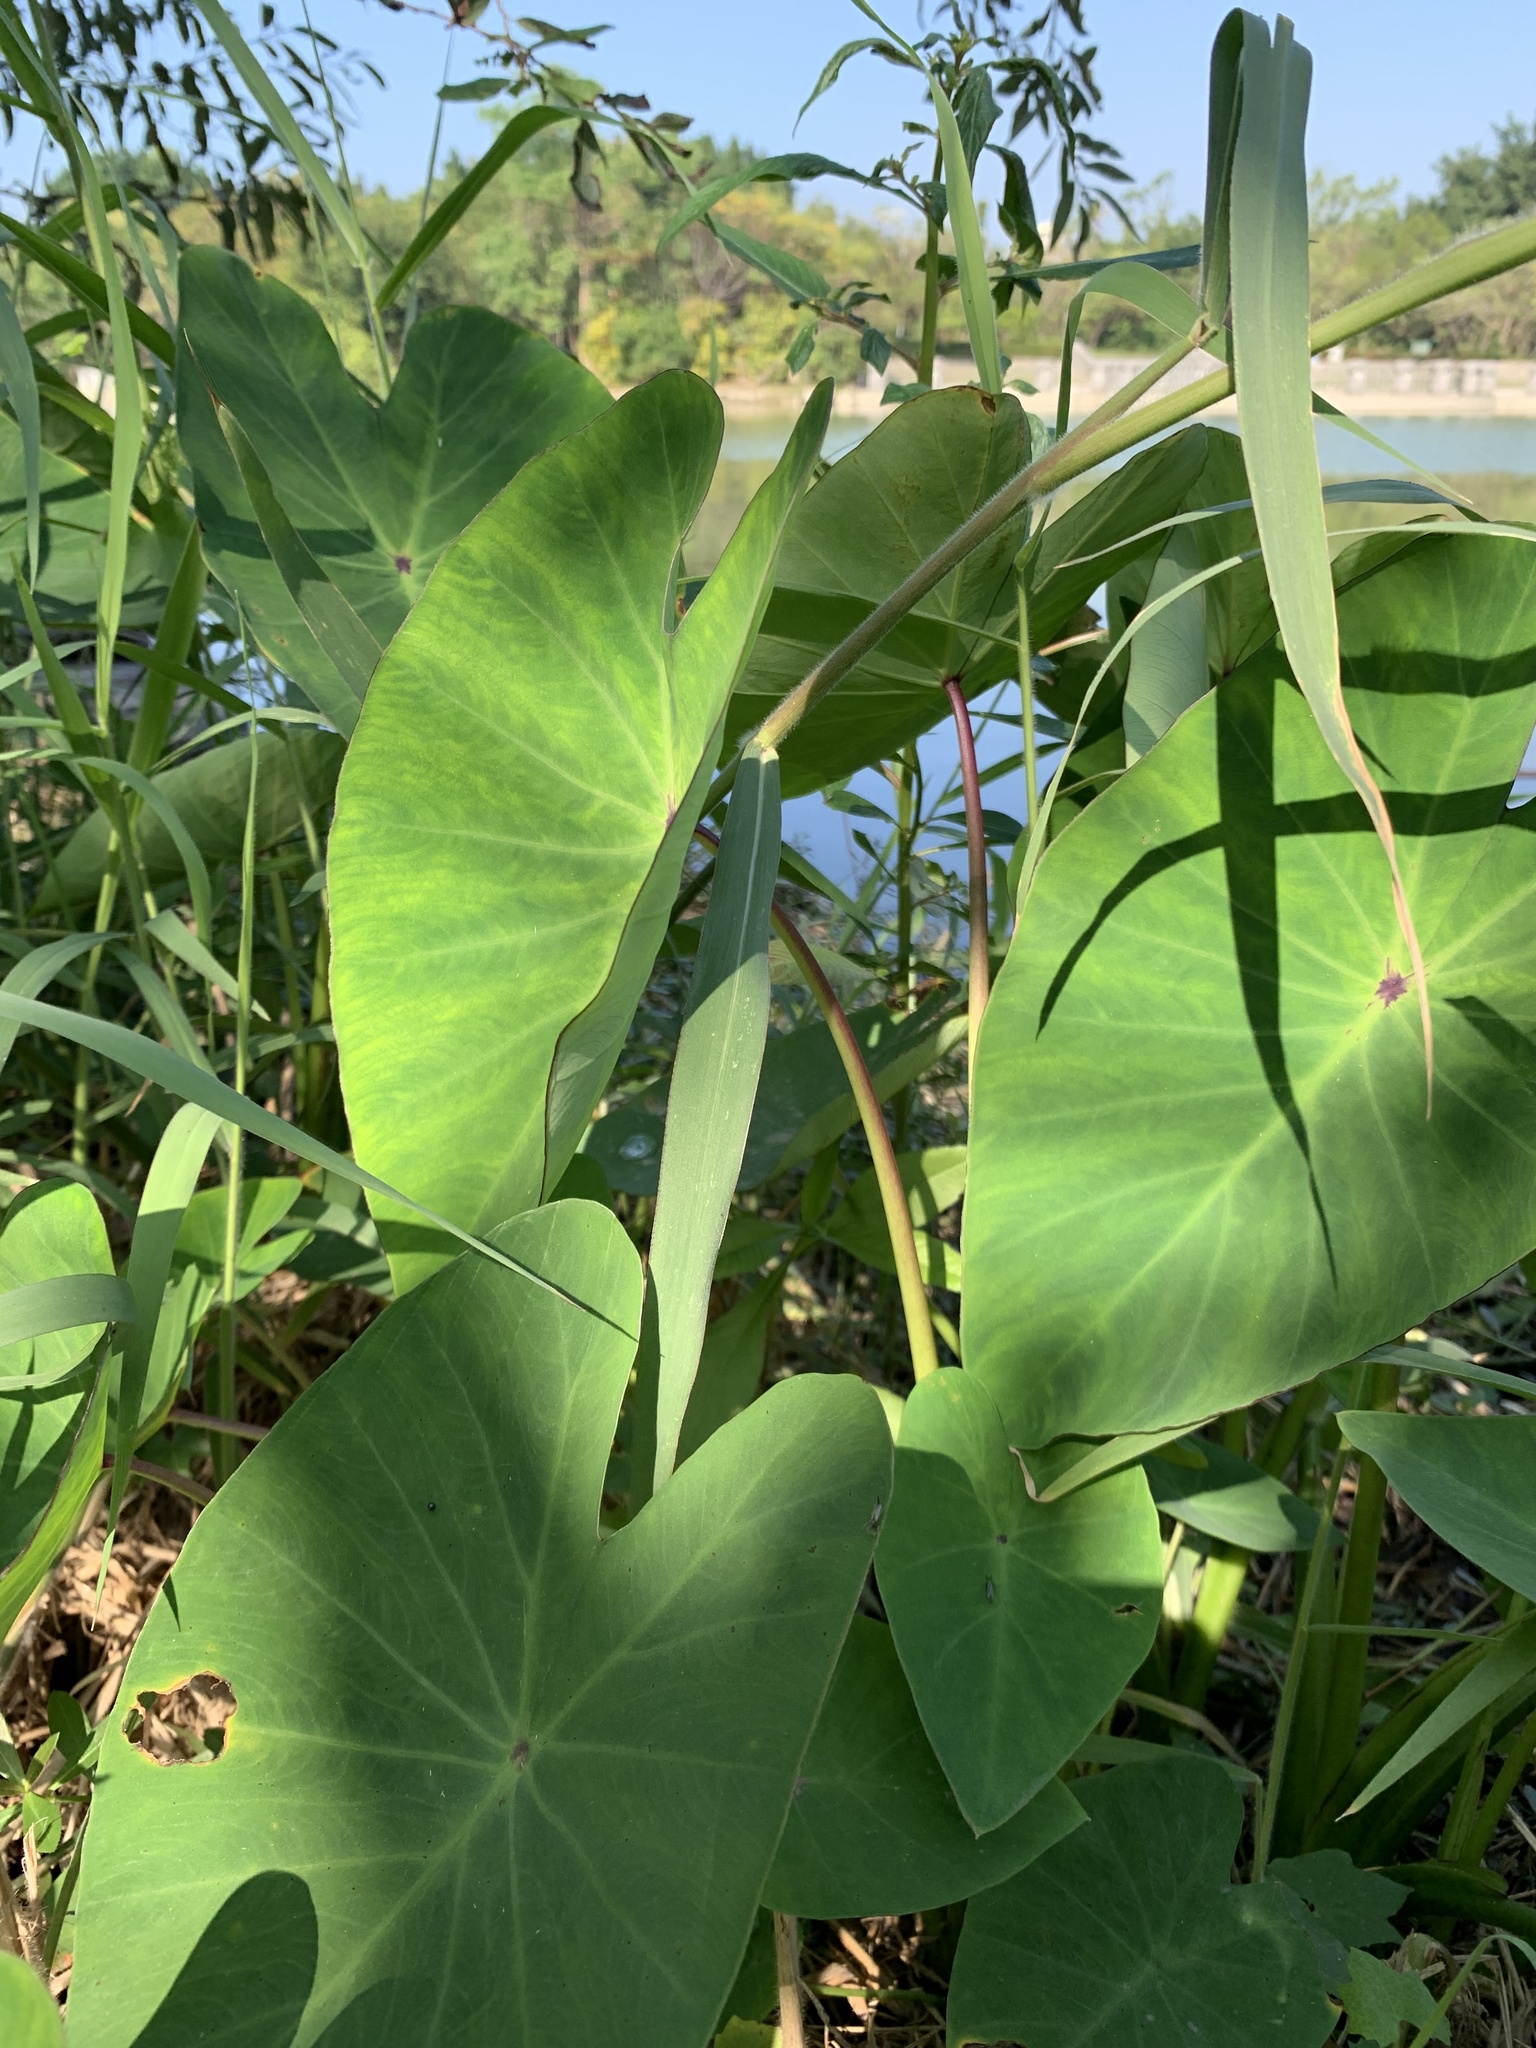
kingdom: Plantae
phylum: Tracheophyta
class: Liliopsida
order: Alismatales
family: Araceae
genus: Colocasia
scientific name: Colocasia esculenta
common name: Taro
